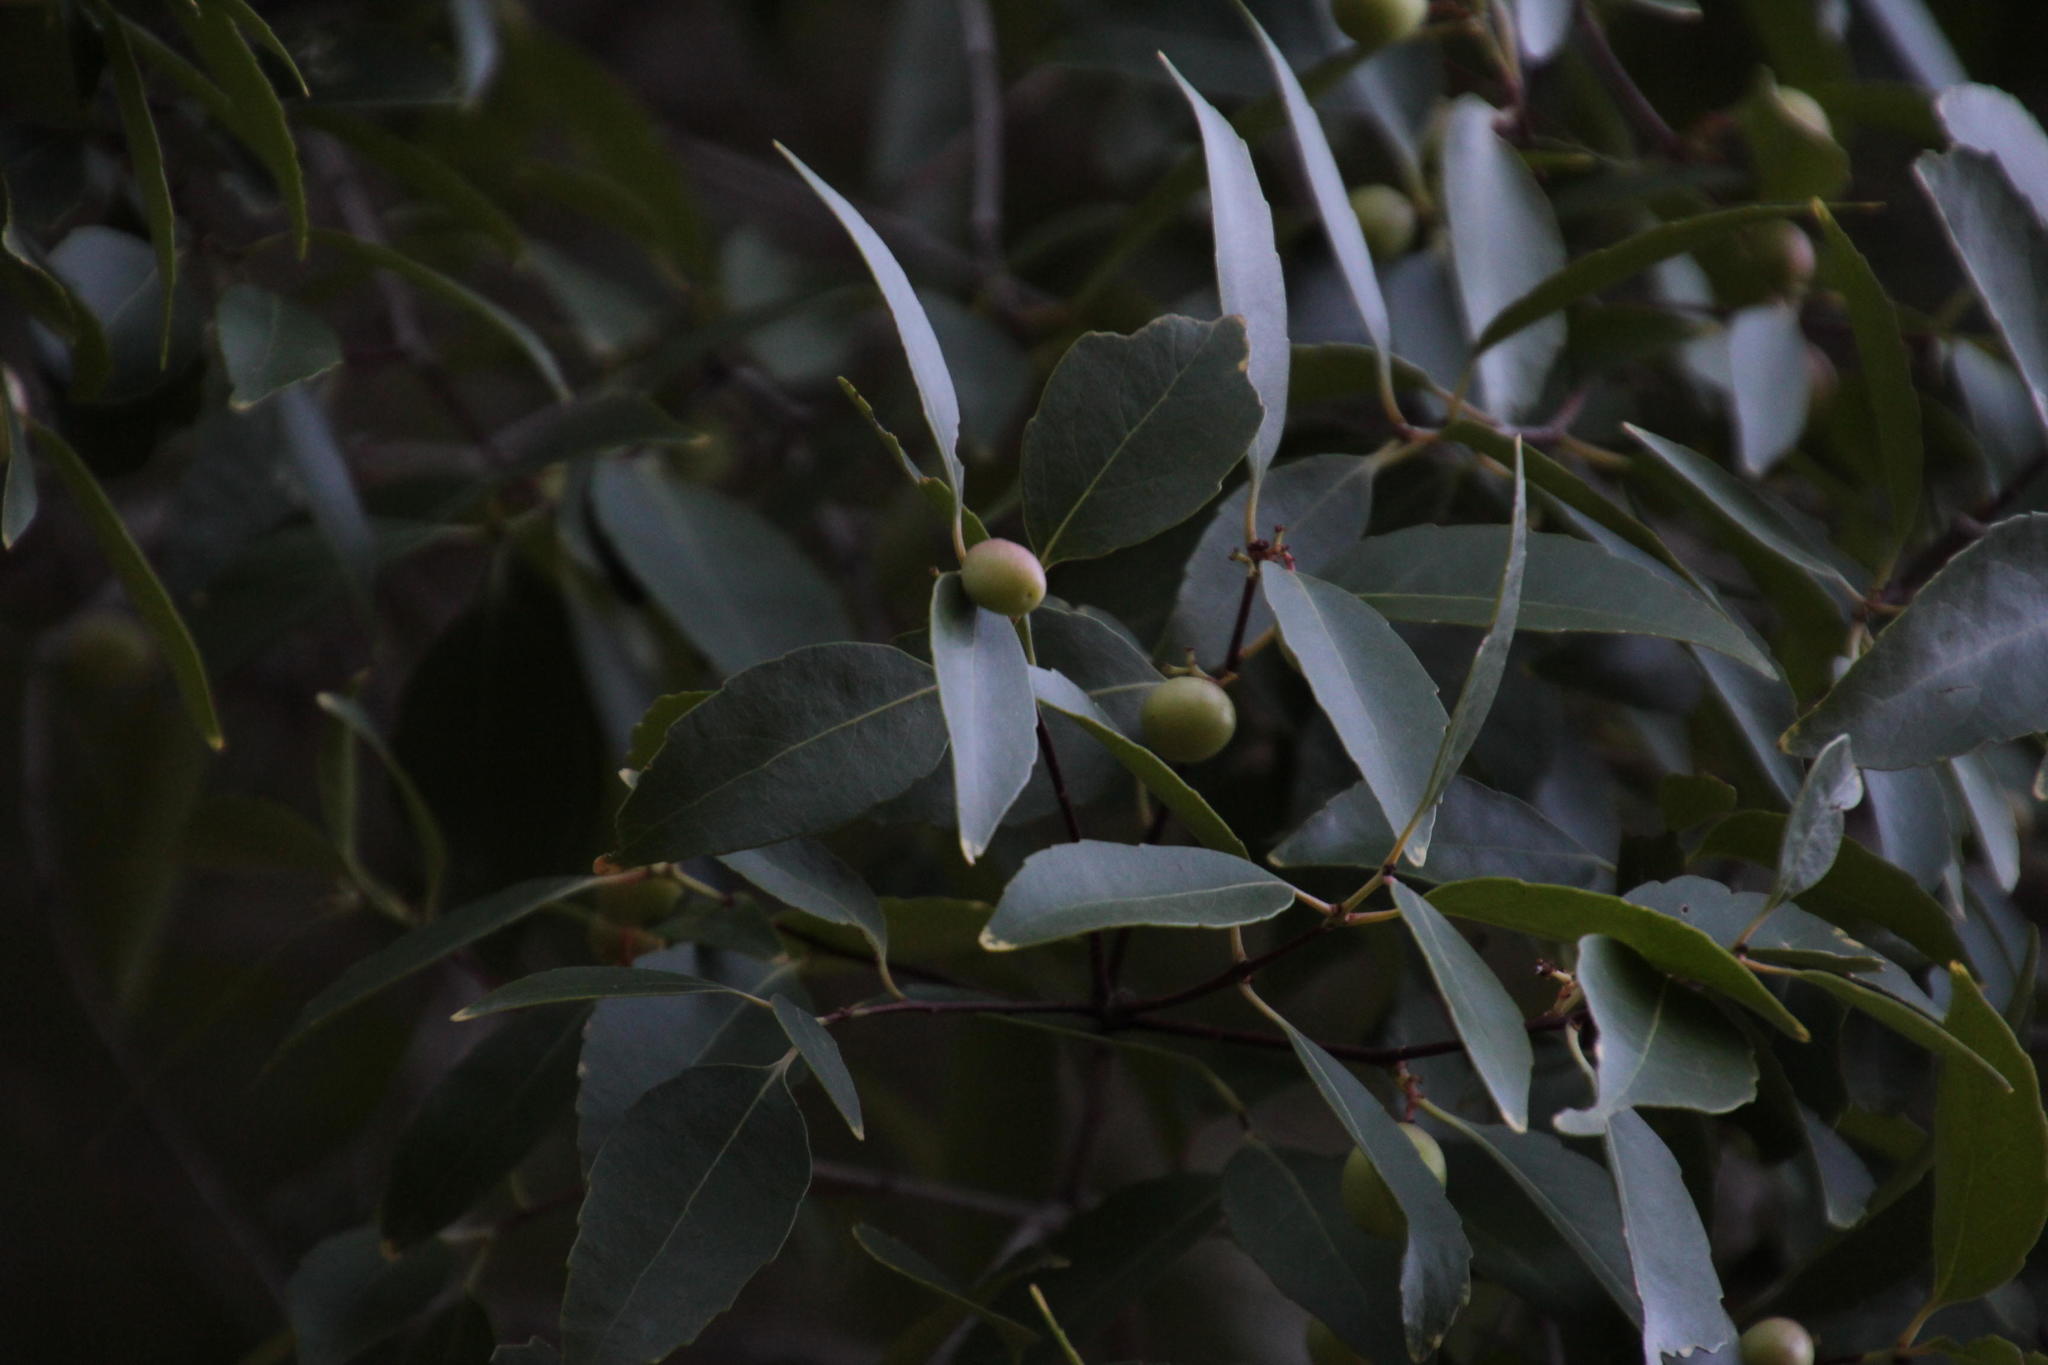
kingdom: Plantae
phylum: Tracheophyta
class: Magnoliopsida
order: Celastrales
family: Celastraceae
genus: Gymnosporia
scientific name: Gymnosporia acuminata
